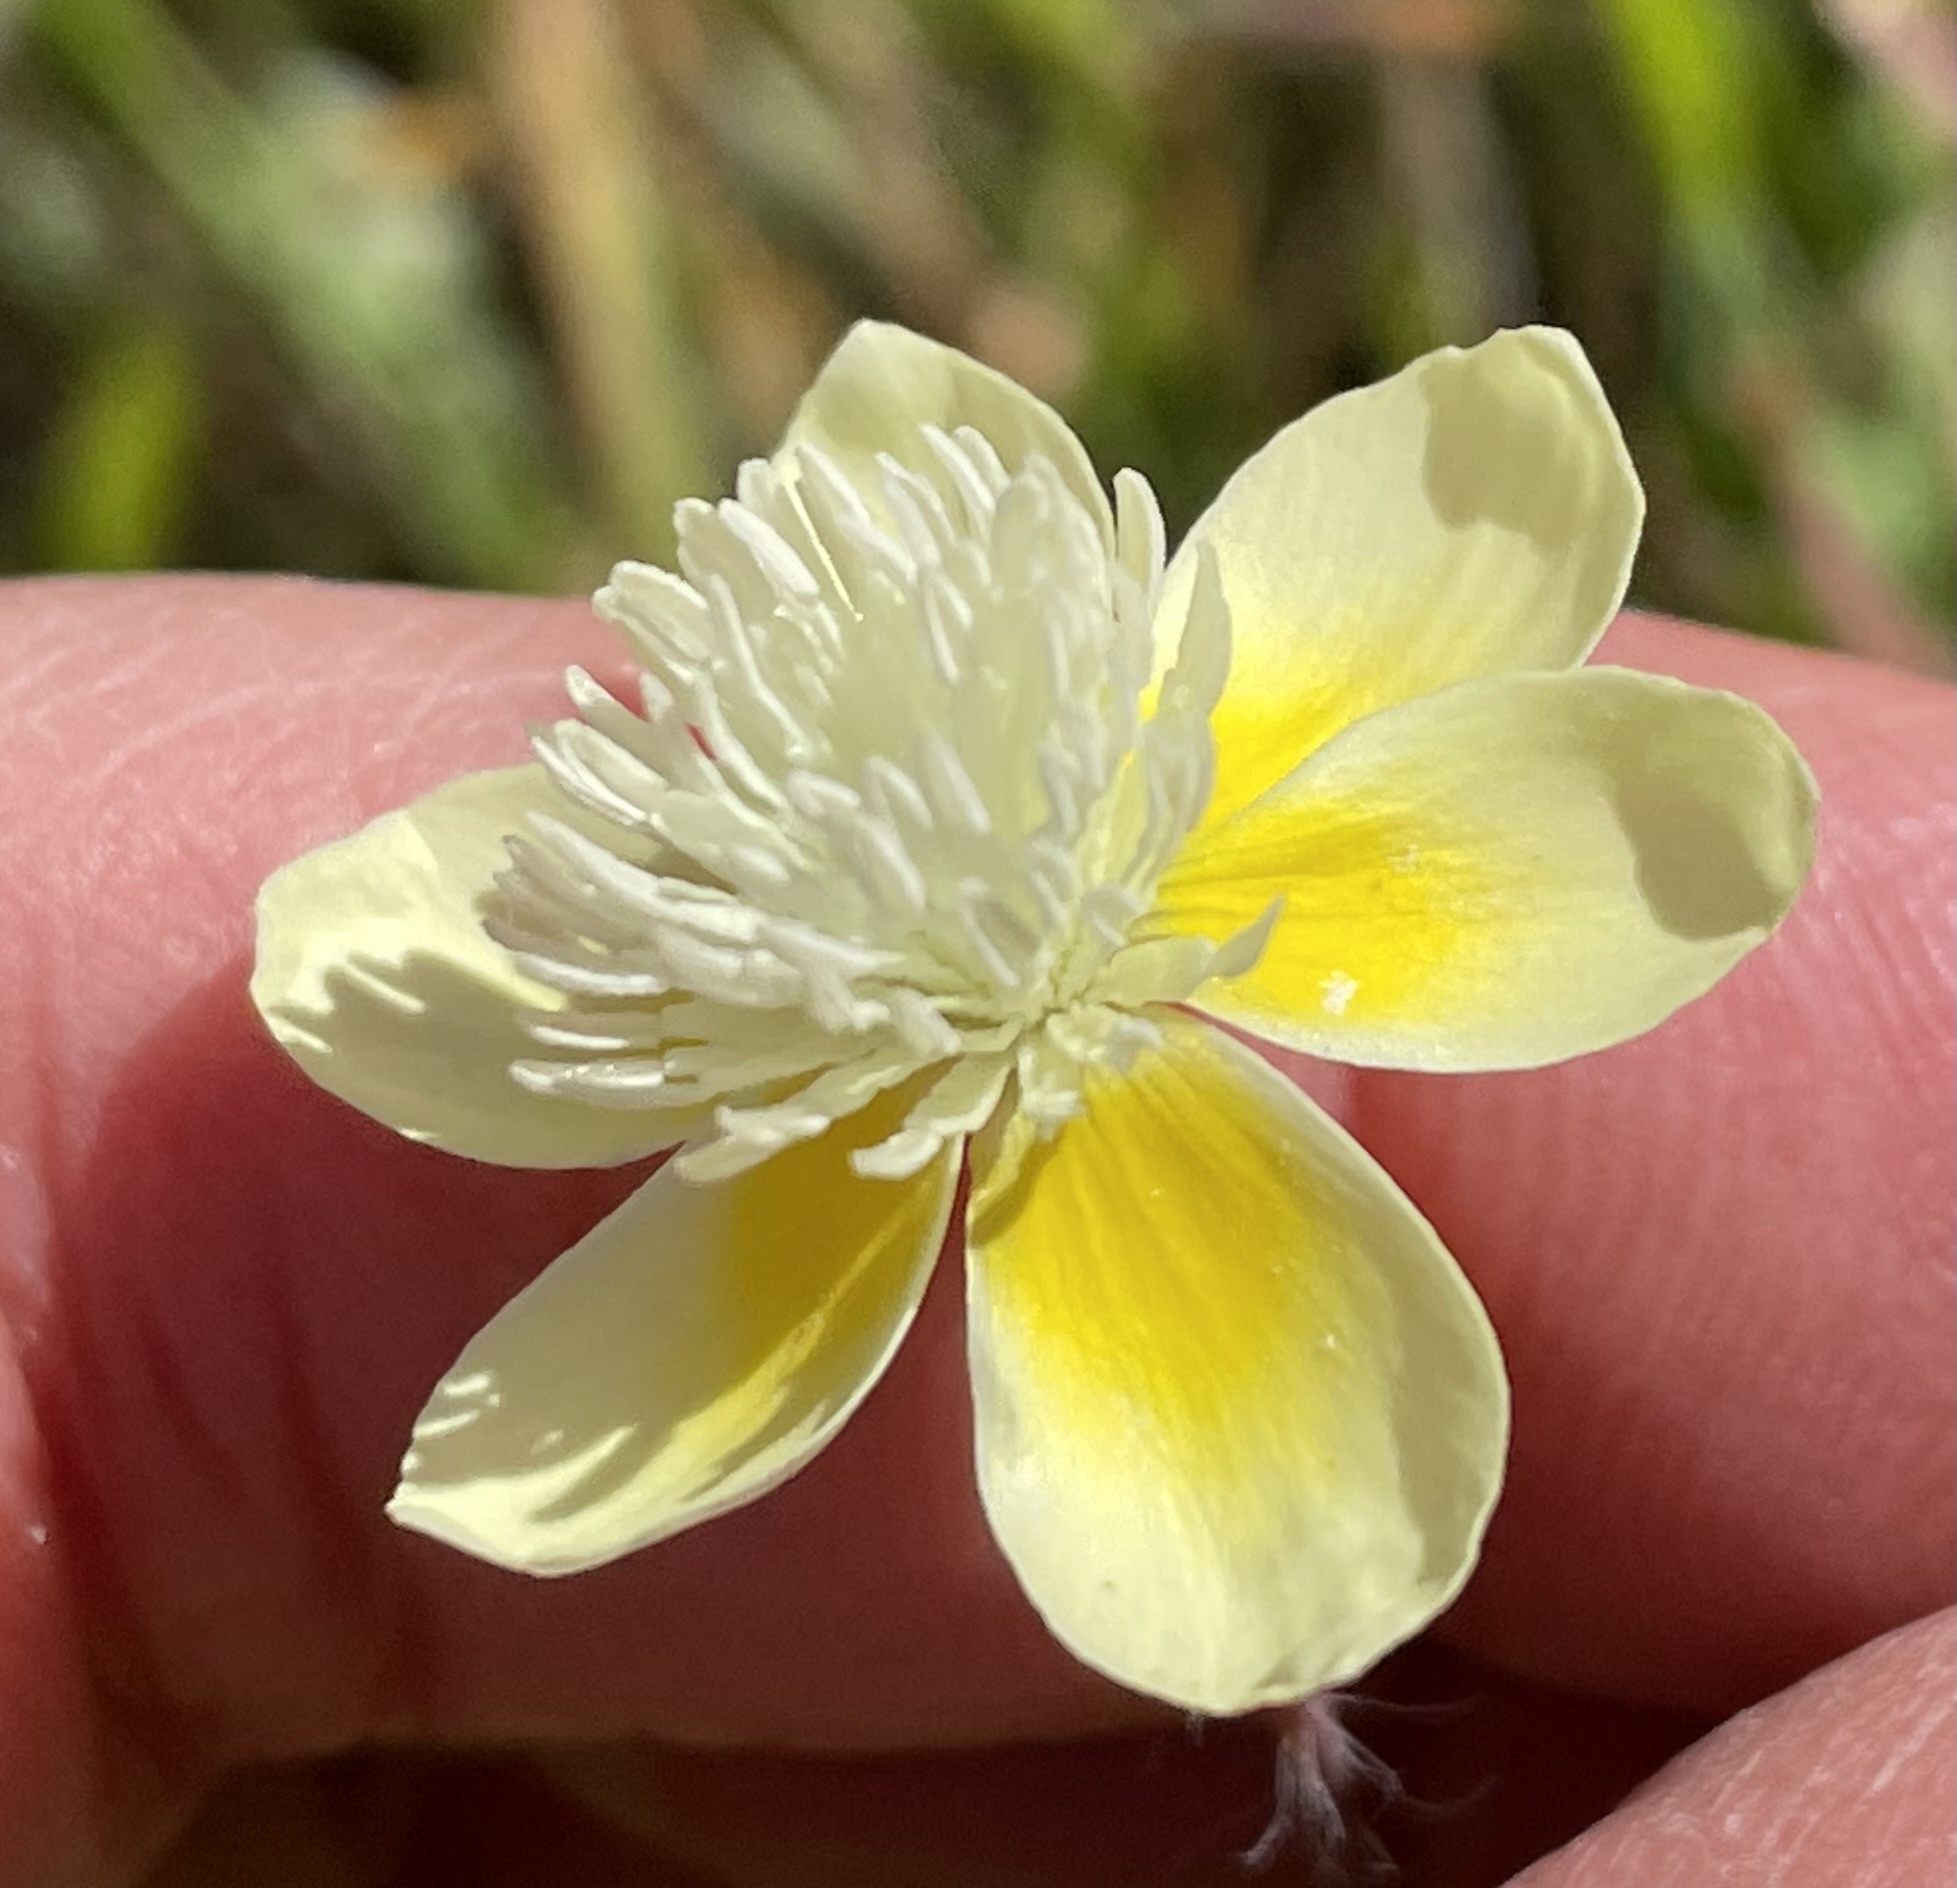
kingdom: Plantae
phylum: Tracheophyta
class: Magnoliopsida
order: Ranunculales
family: Papaveraceae
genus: Platystemon
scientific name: Platystemon californicus
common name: Cream-cups
